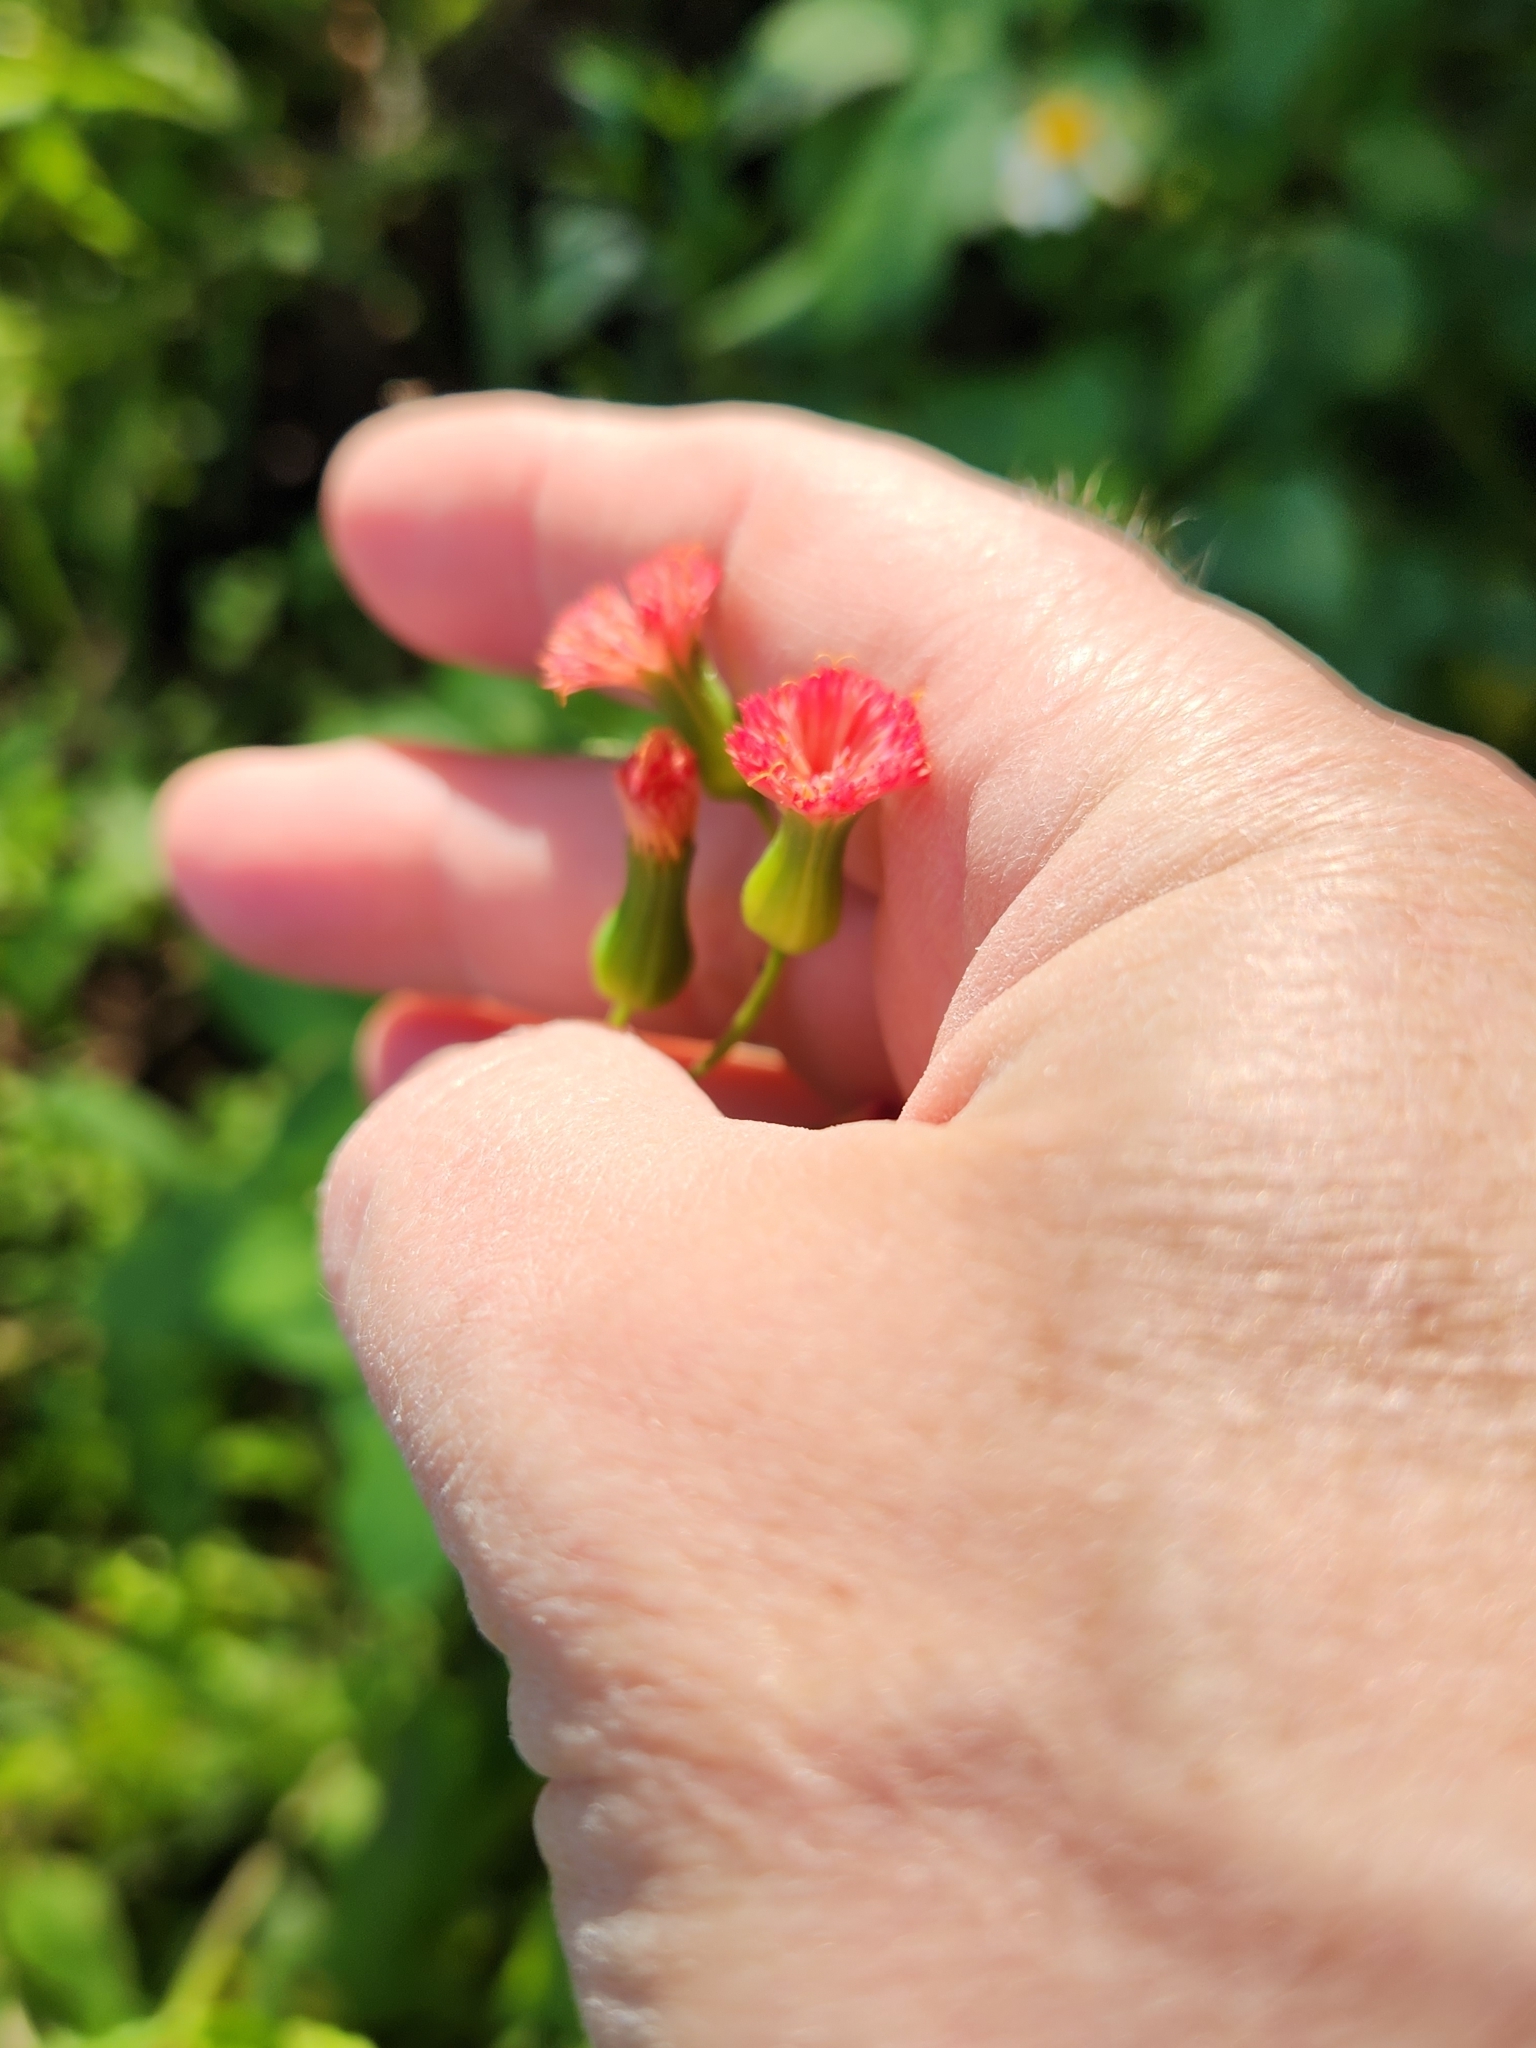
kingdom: Plantae
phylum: Tracheophyta
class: Magnoliopsida
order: Asterales
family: Asteraceae
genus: Emilia
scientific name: Emilia fosbergii
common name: Florida tasselflower
